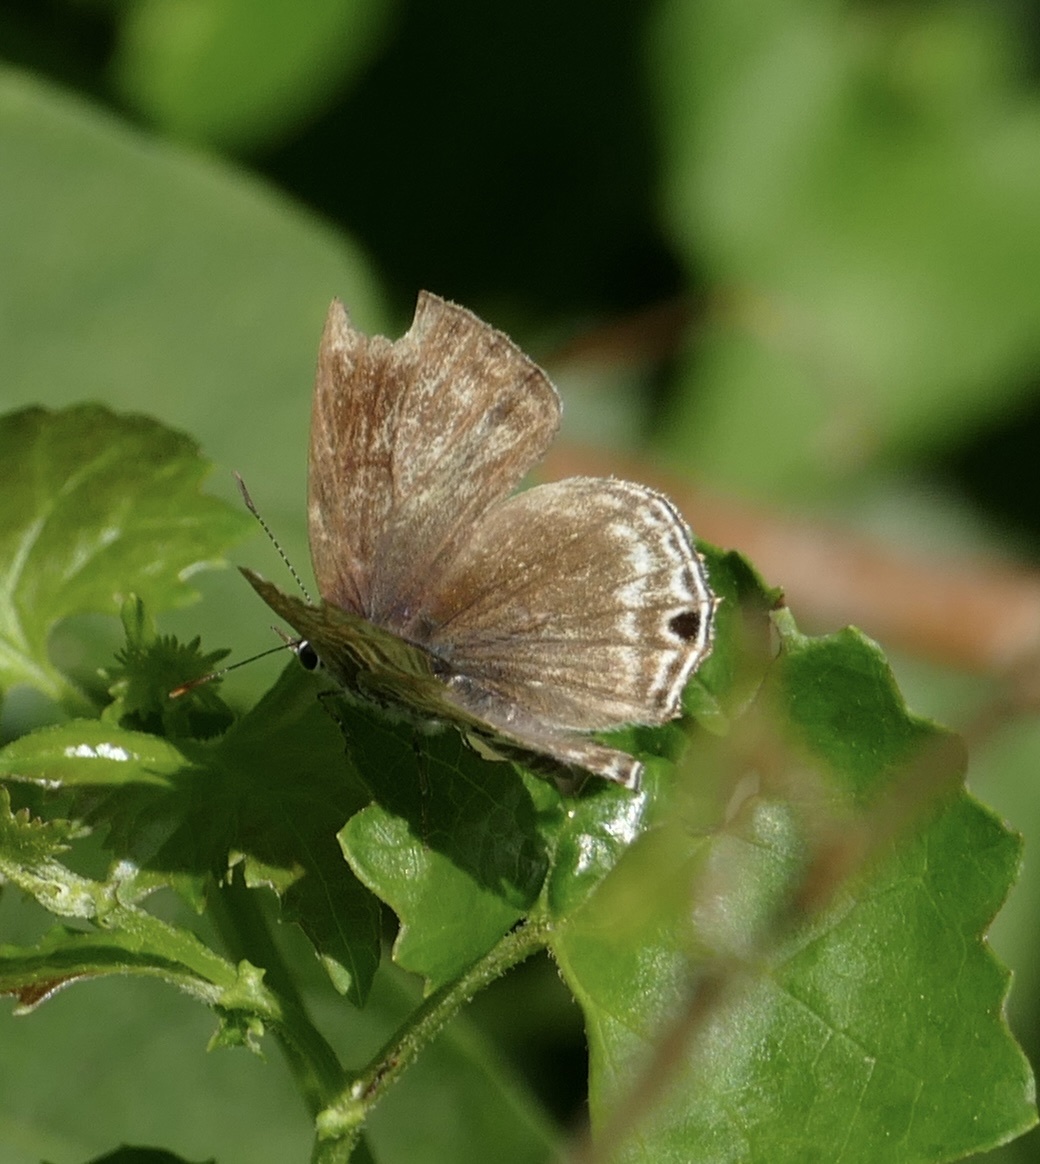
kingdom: Animalia
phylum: Arthropoda
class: Insecta
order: Lepidoptera
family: Lycaenidae
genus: Anthene
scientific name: Anthene larydas
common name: Forest hairtail
